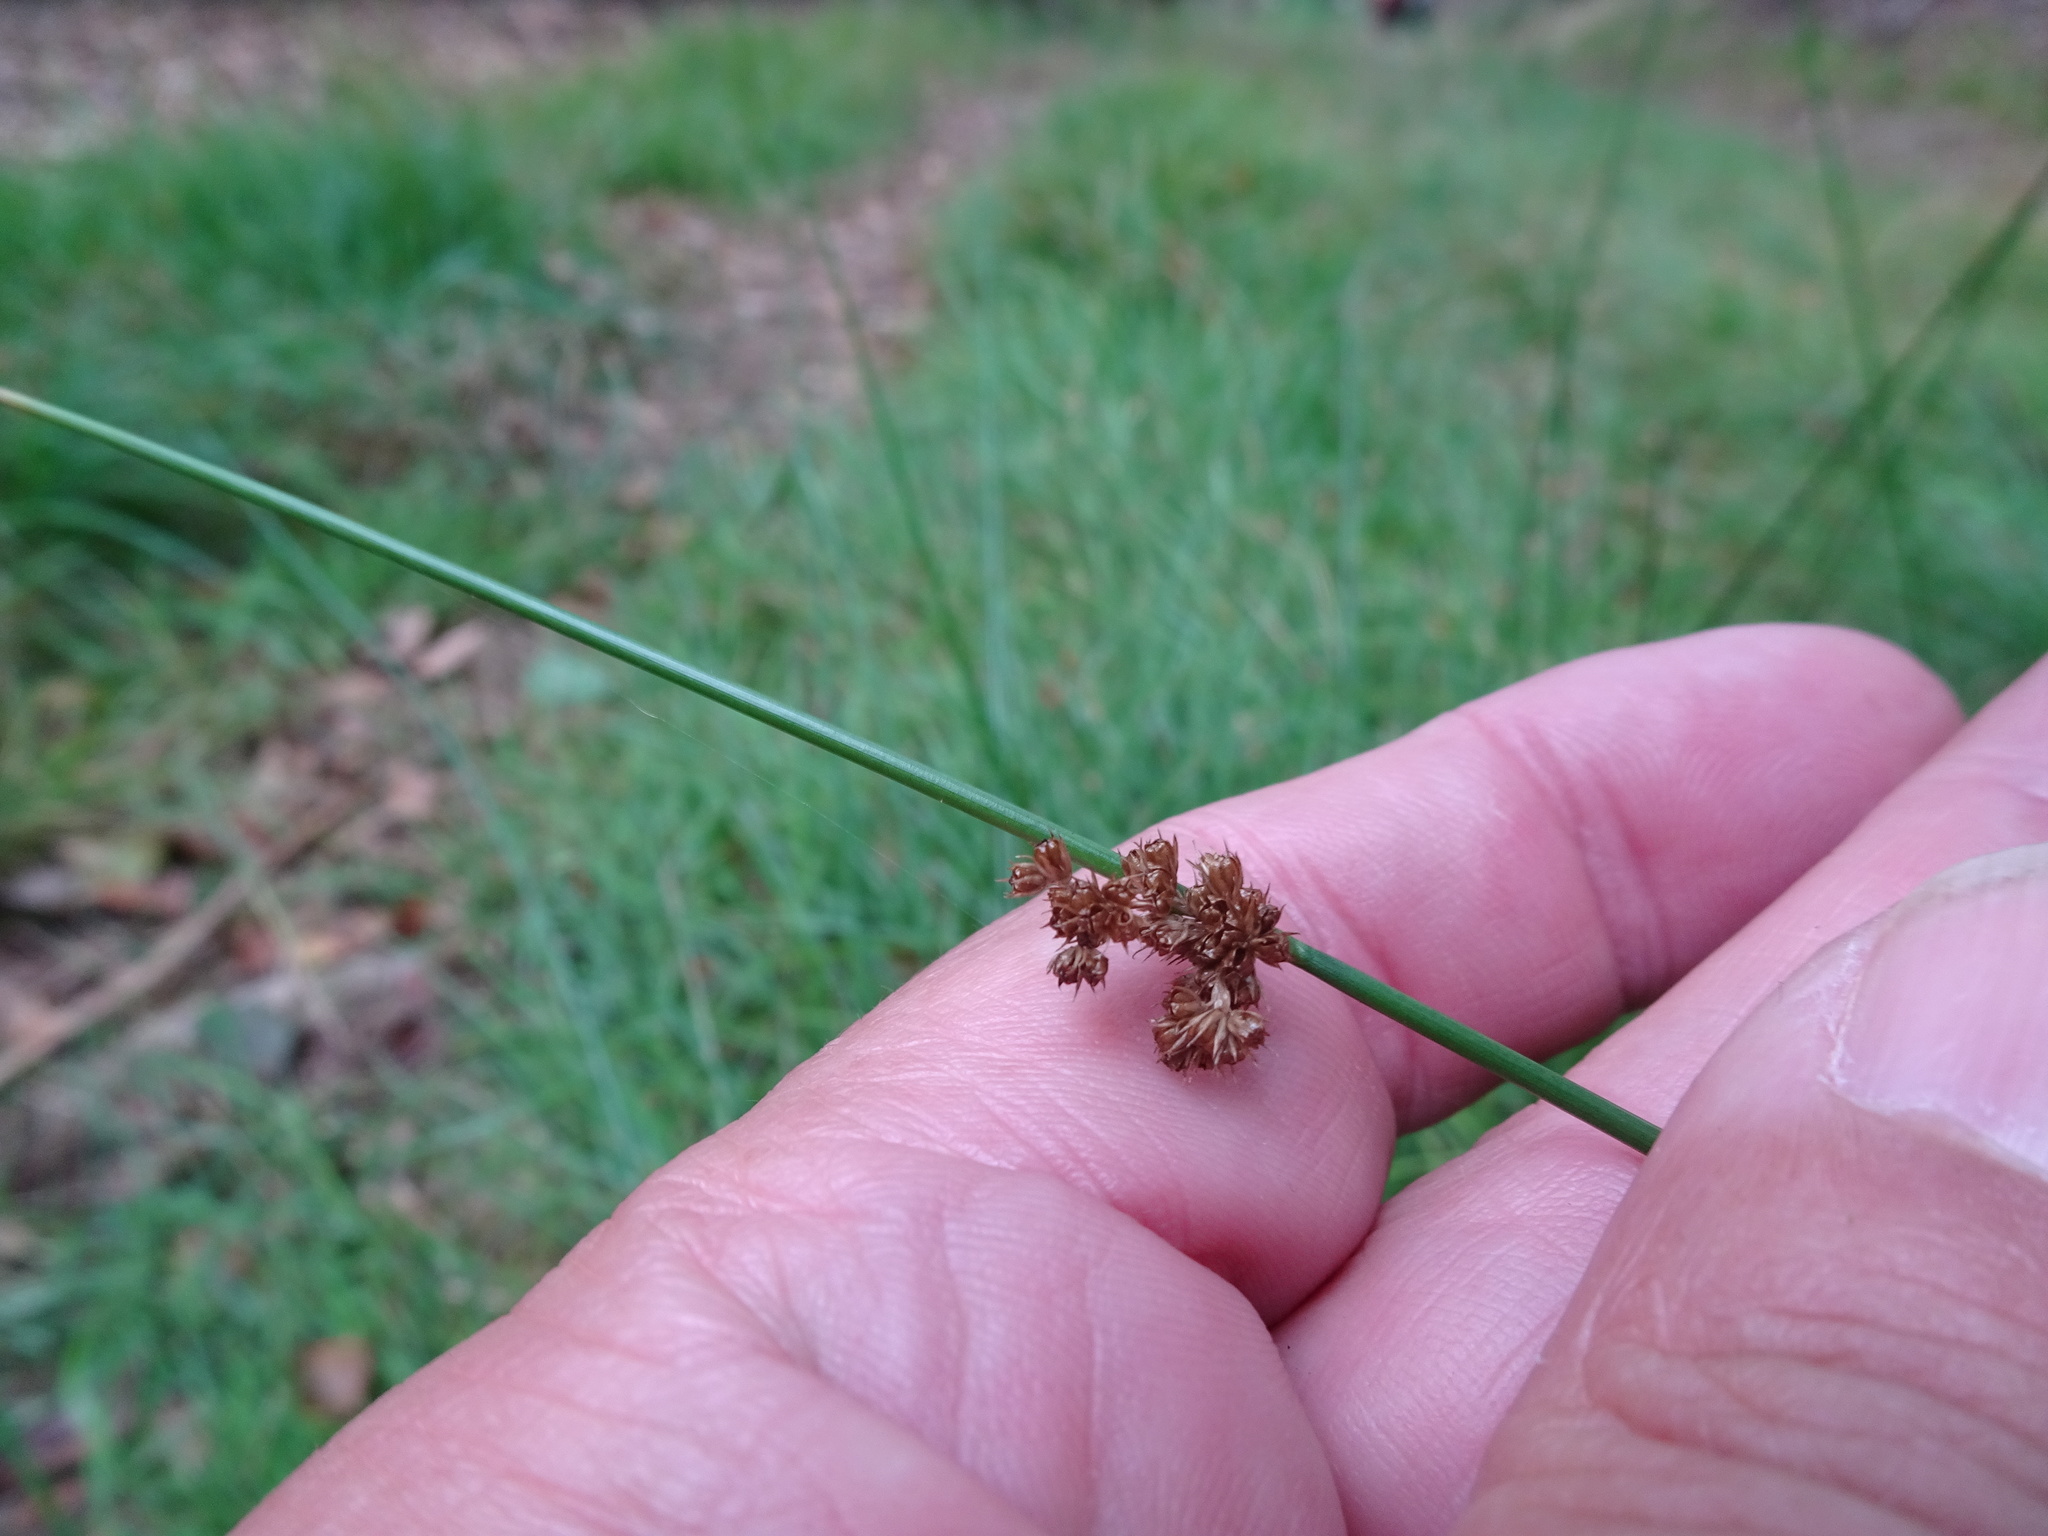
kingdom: Plantae
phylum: Tracheophyta
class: Liliopsida
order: Poales
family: Juncaceae
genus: Juncus
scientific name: Juncus effusus
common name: Soft rush
